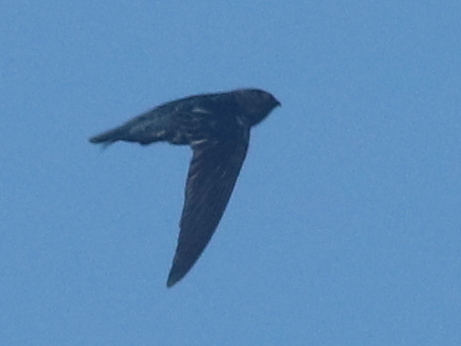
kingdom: Animalia
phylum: Chordata
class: Aves
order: Apodiformes
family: Apodidae
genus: Collocalia
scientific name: Collocalia affinis
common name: Plume-toed swiftlet
